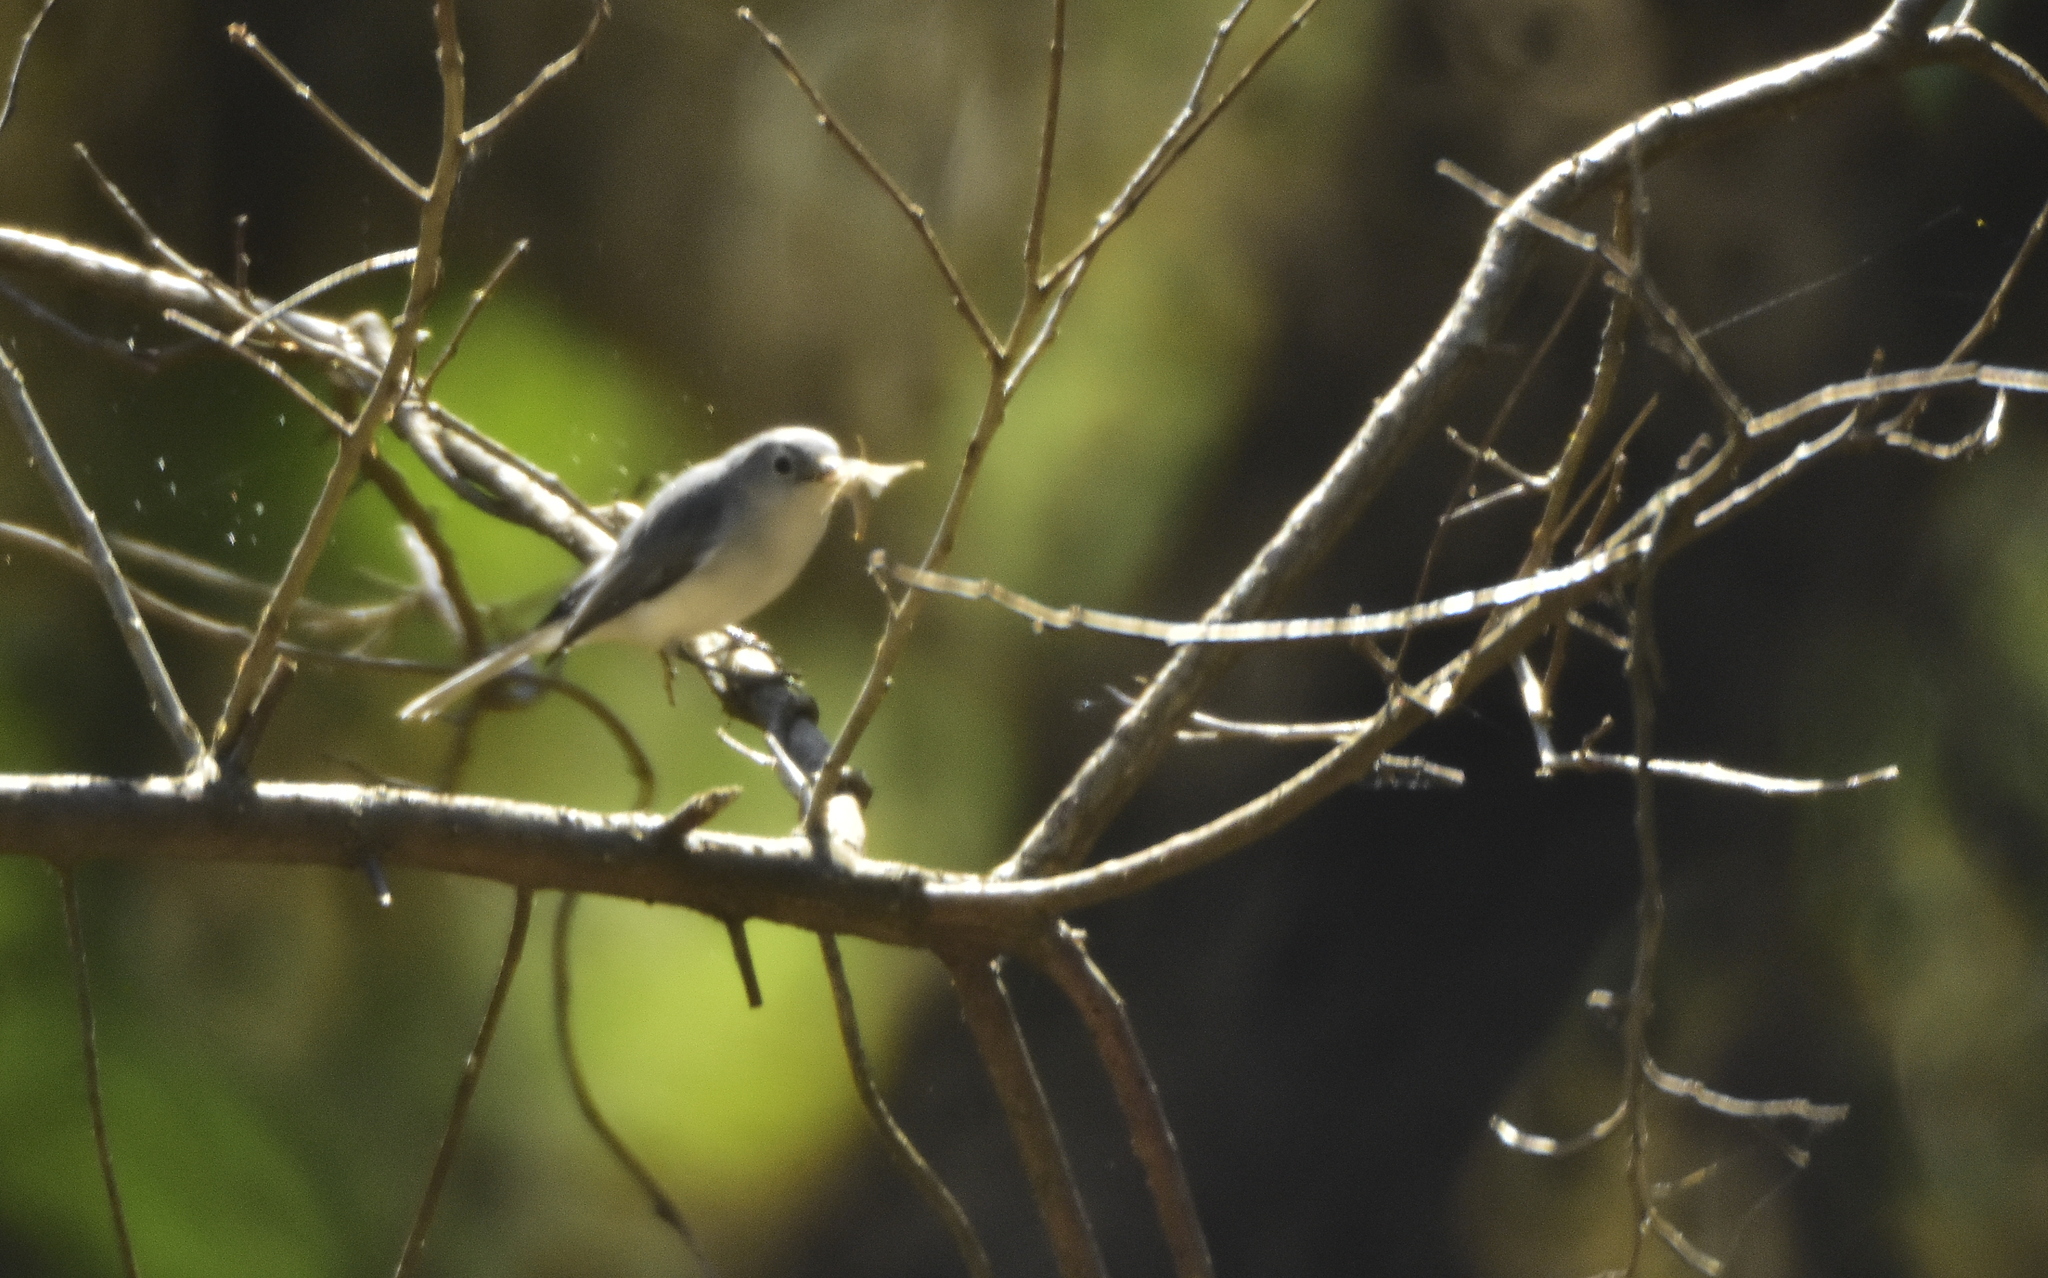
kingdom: Animalia
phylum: Chordata
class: Aves
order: Passeriformes
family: Polioptilidae
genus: Polioptila
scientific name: Polioptila caerulea
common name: Blue-gray gnatcatcher
